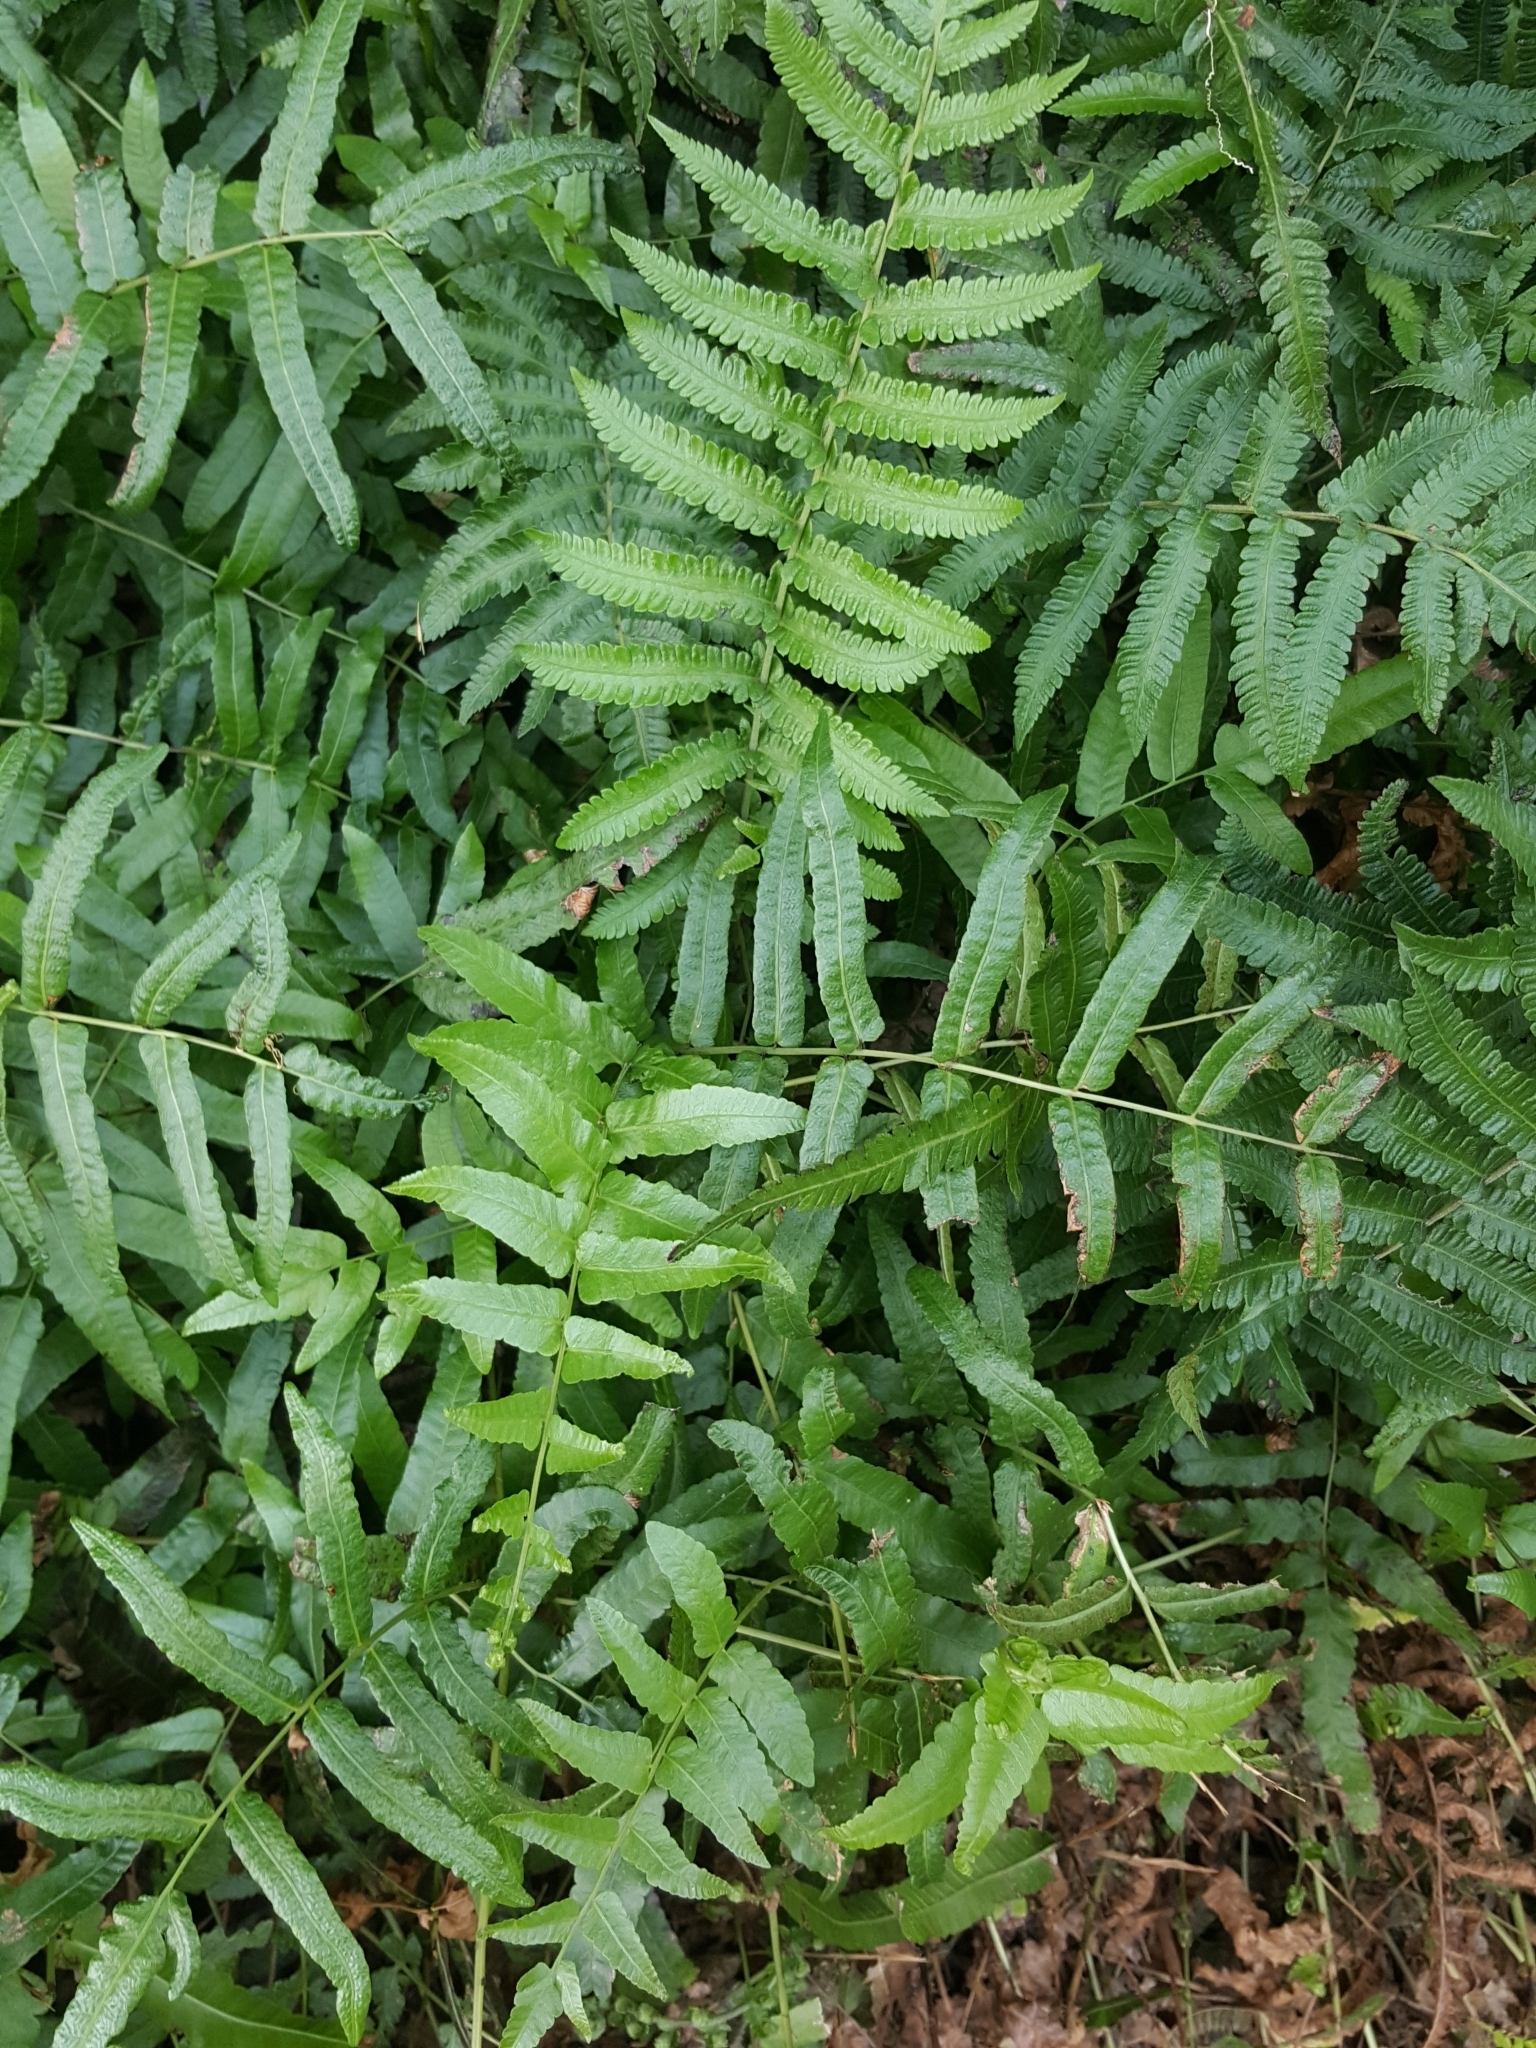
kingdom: Plantae
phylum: Tracheophyta
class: Polypodiopsida
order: Polypodiales
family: Thelypteridaceae
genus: Ampelopteris
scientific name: Ampelopteris prolifera
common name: Riverine scrambler
